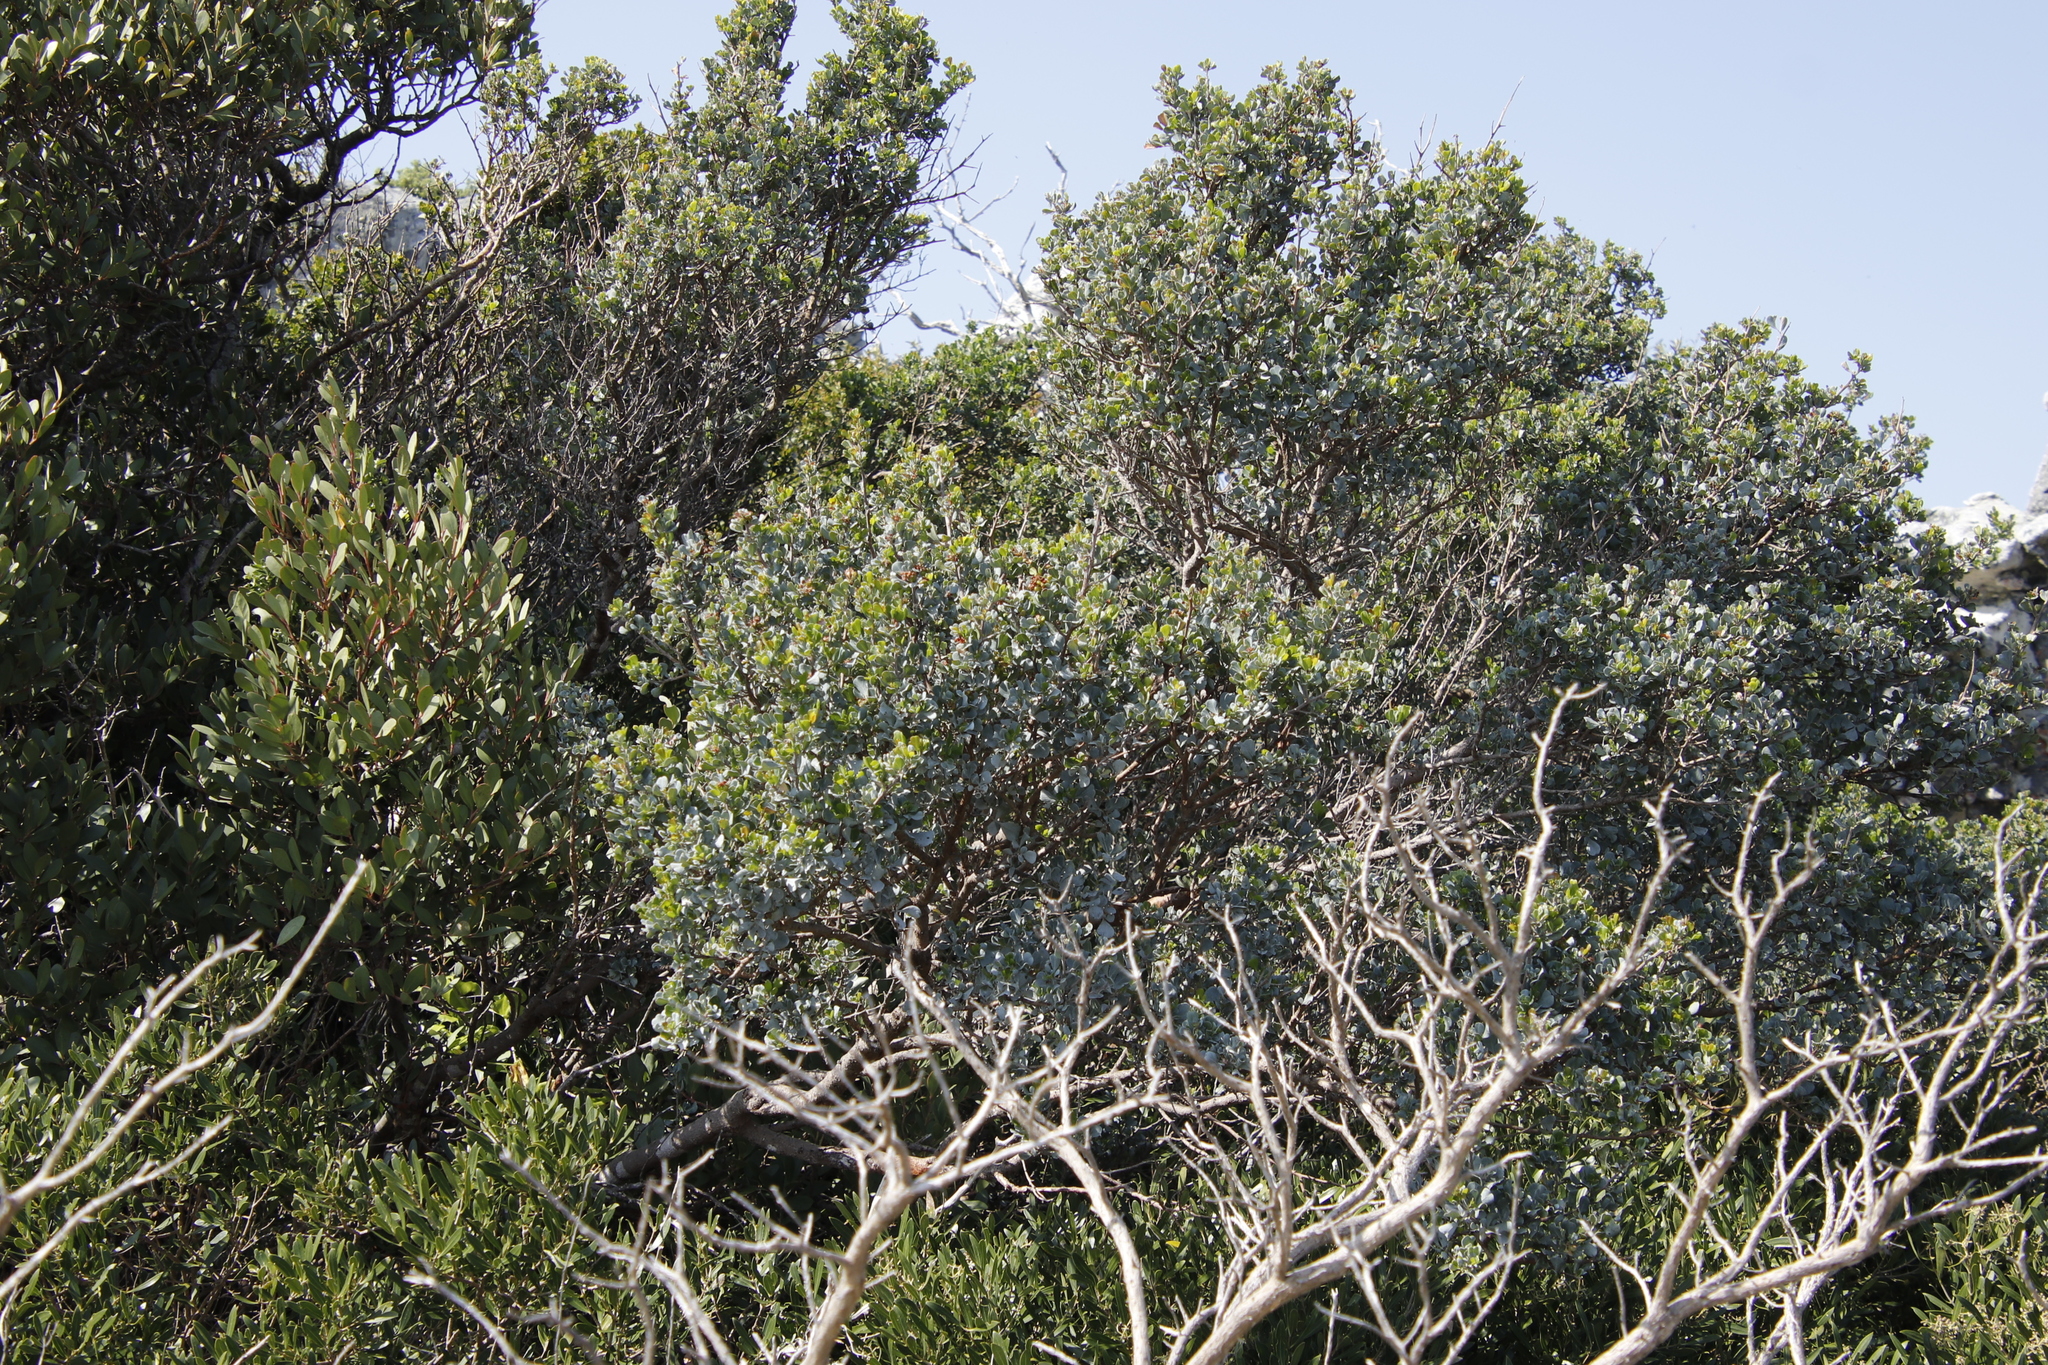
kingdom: Plantae
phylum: Tracheophyta
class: Magnoliopsida
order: Sapindales
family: Anacardiaceae
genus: Searsia
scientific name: Searsia glauca
